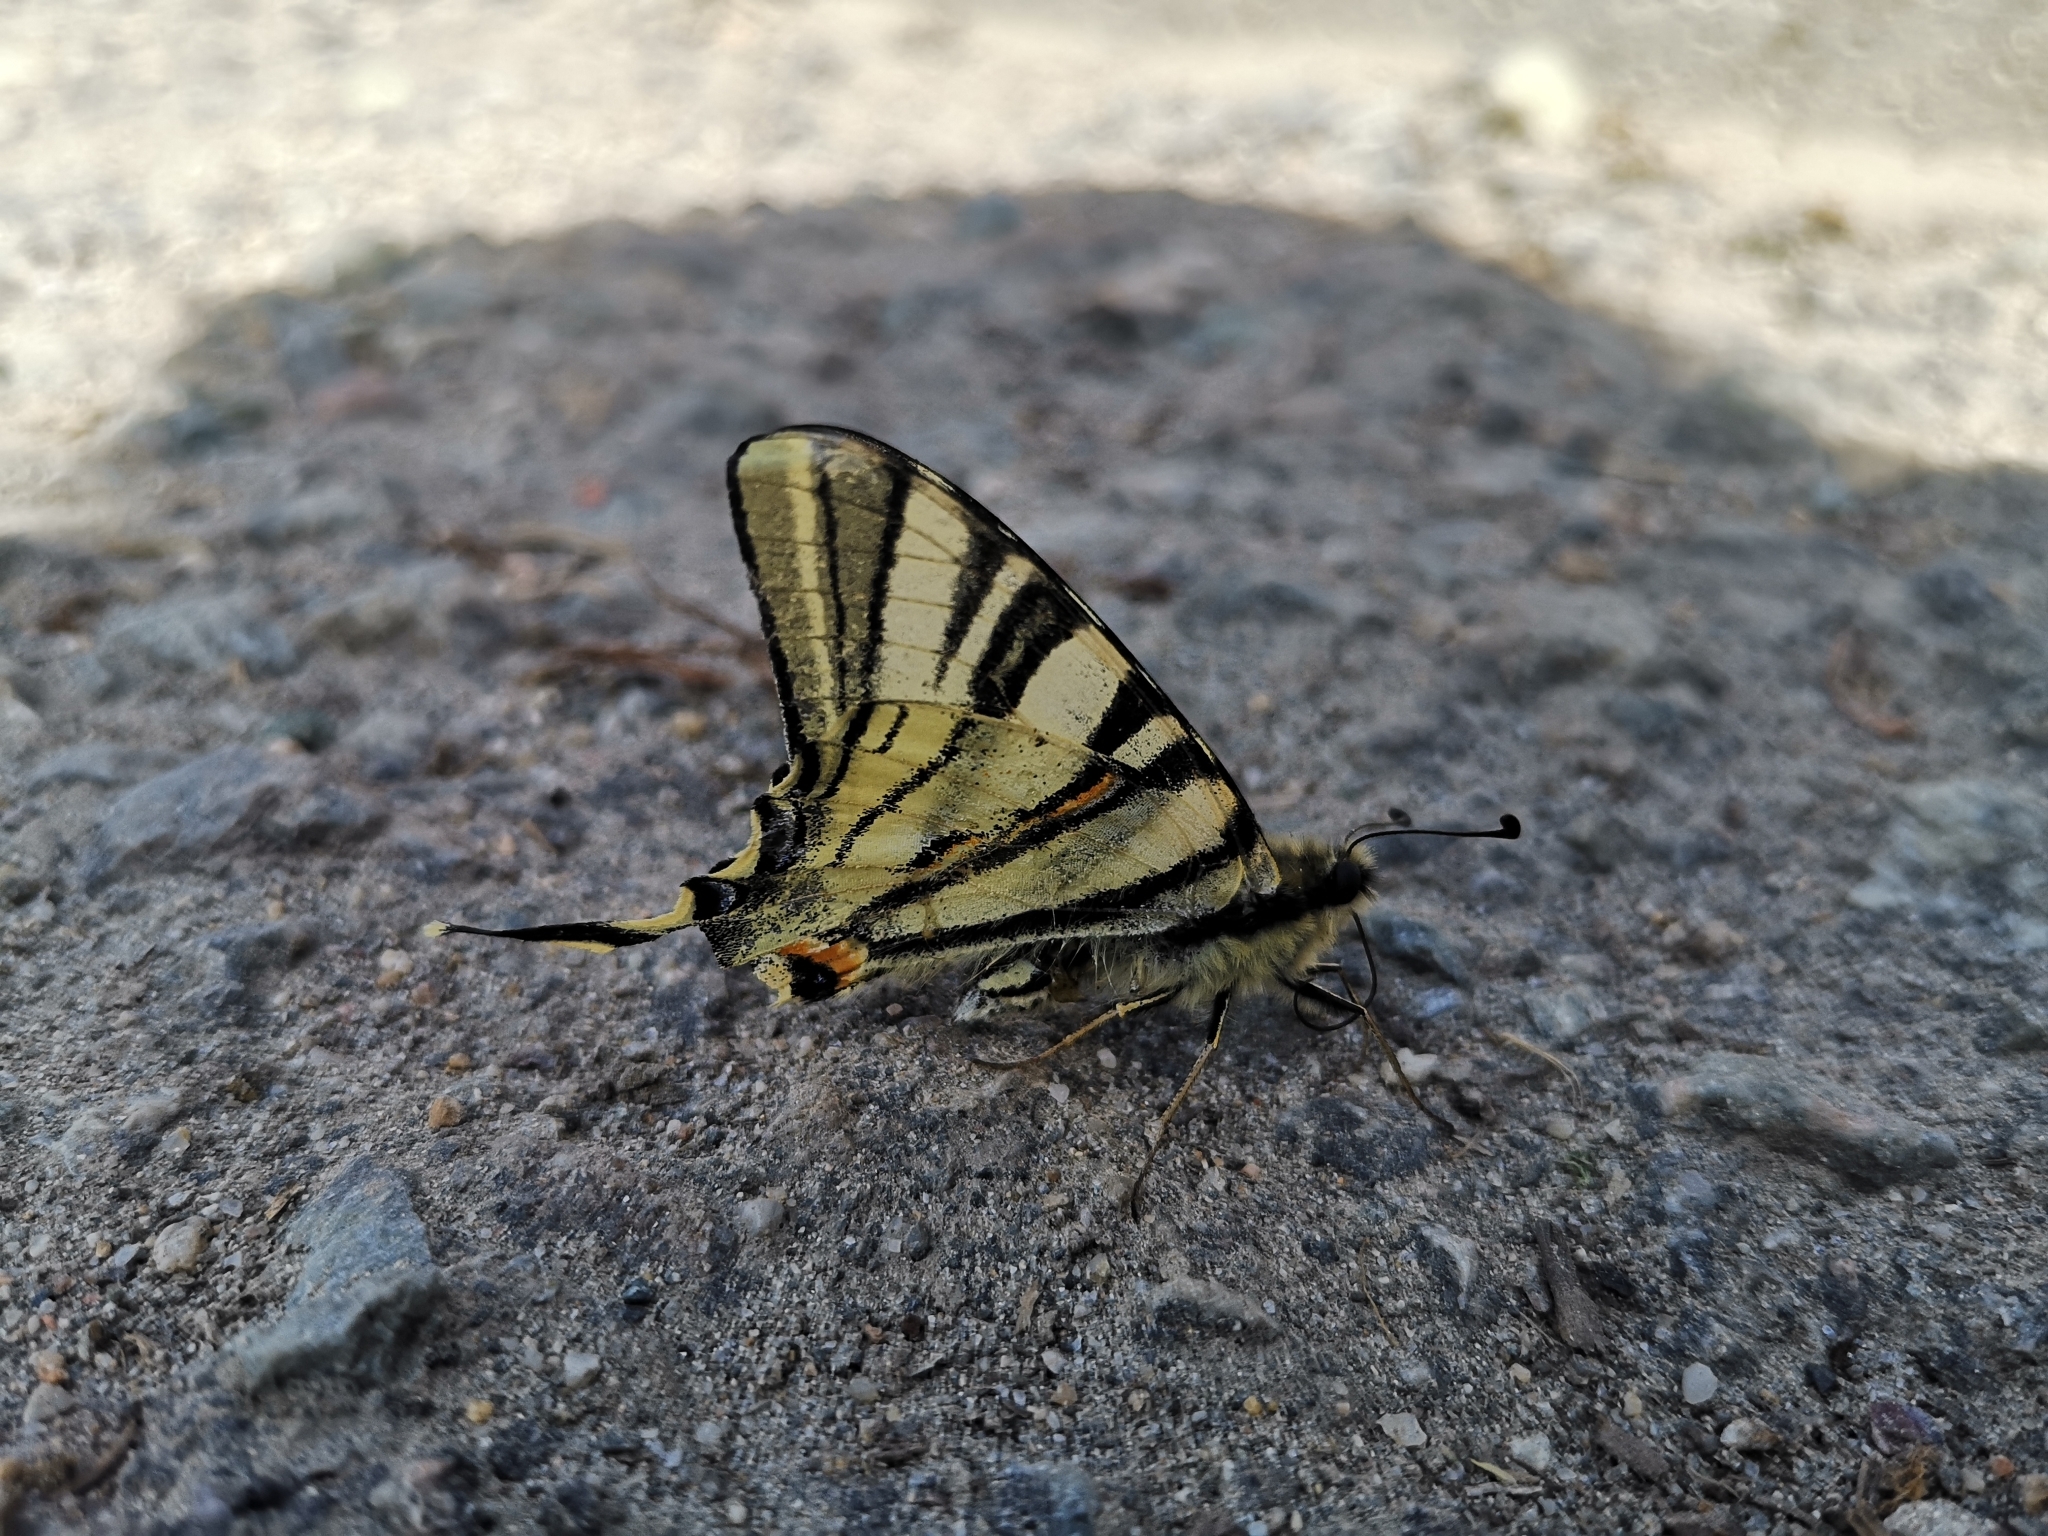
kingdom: Animalia
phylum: Arthropoda
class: Insecta
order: Lepidoptera
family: Papilionidae
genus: Iphiclides
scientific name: Iphiclides podalirius
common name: Scarce swallowtail
